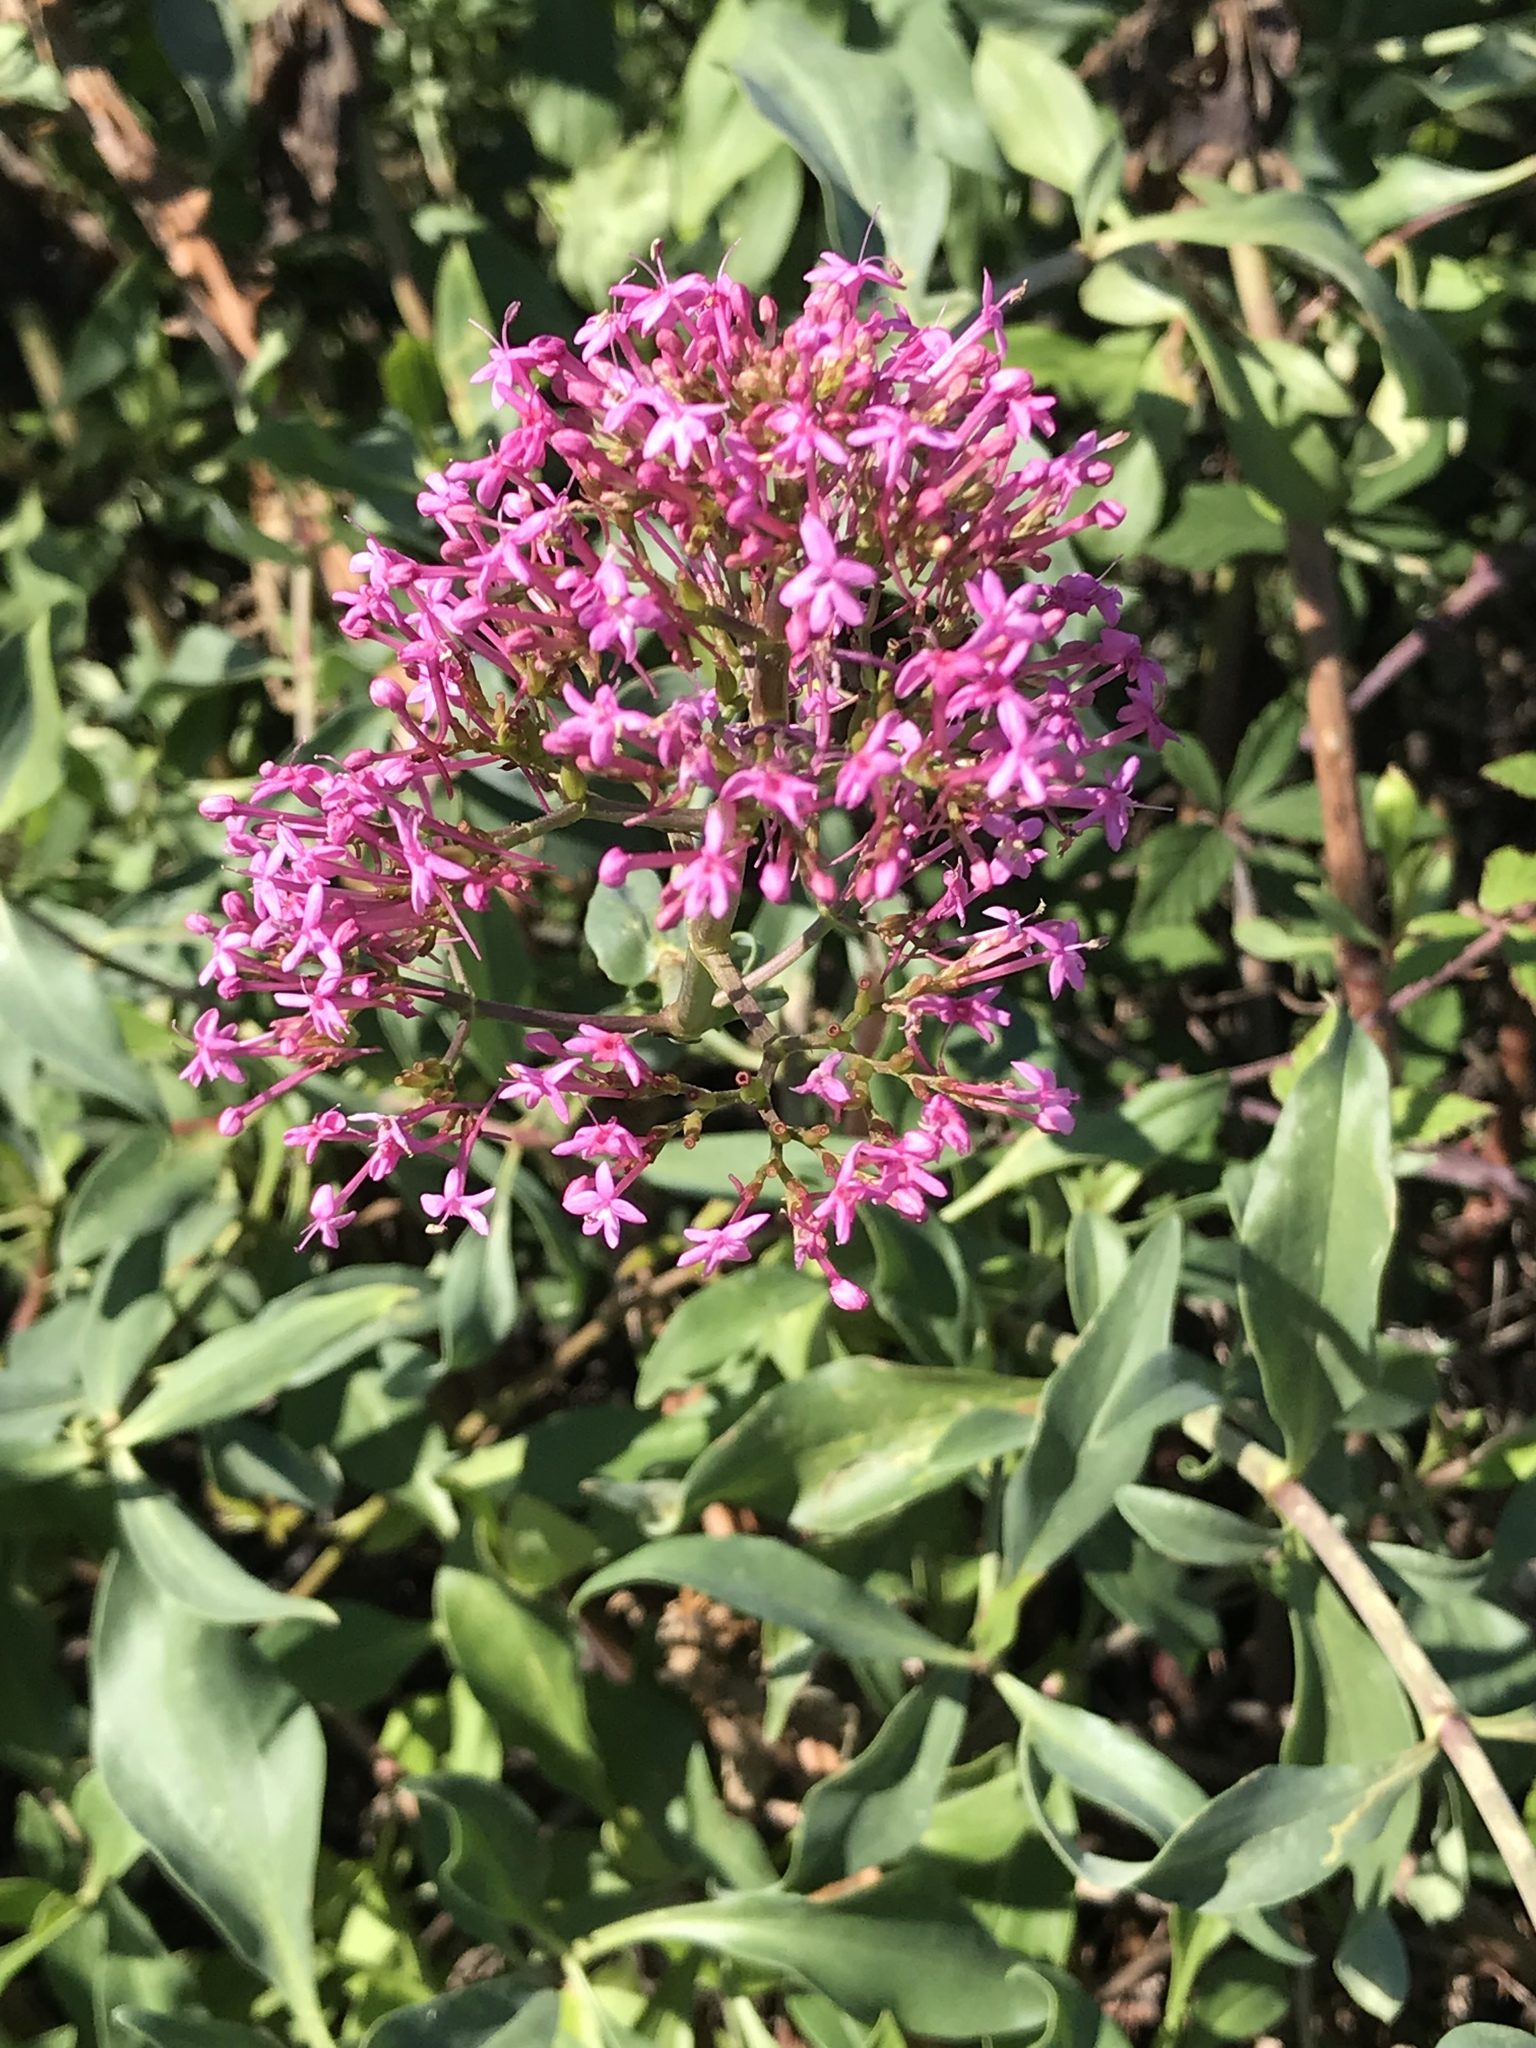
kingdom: Plantae
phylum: Tracheophyta
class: Magnoliopsida
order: Dipsacales
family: Caprifoliaceae
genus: Centranthus
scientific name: Centranthus ruber
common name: Red valerian
